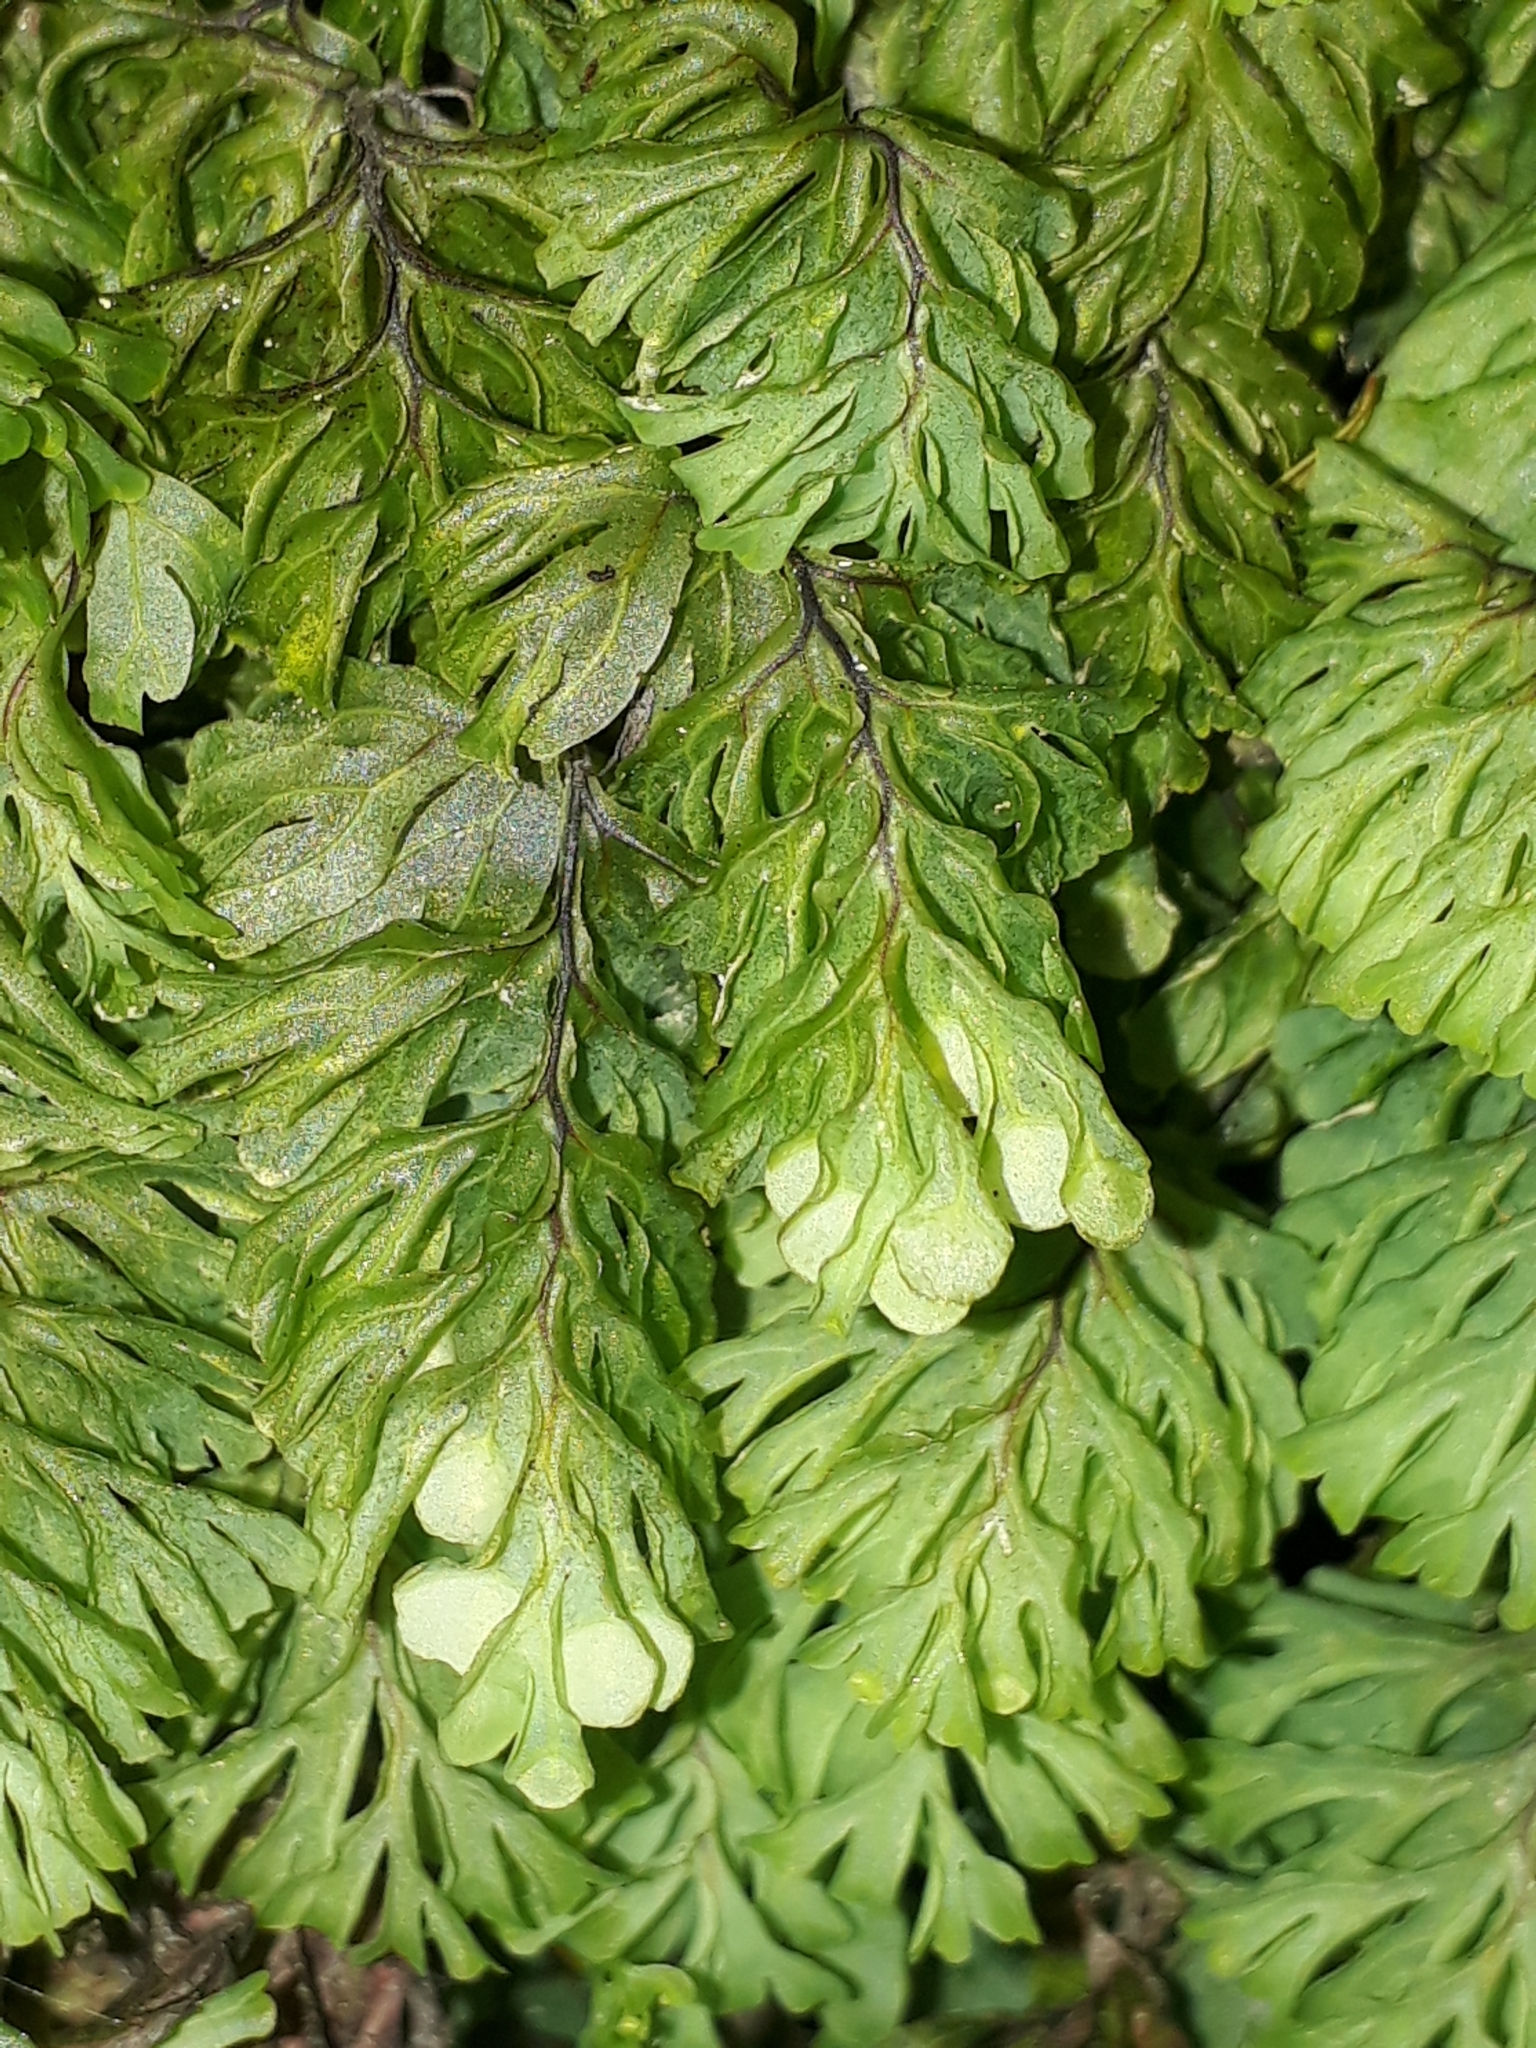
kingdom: Plantae
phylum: Tracheophyta
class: Polypodiopsida
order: Hymenophyllales
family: Hymenophyllaceae
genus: Hymenophyllum
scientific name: Hymenophyllum rarum
